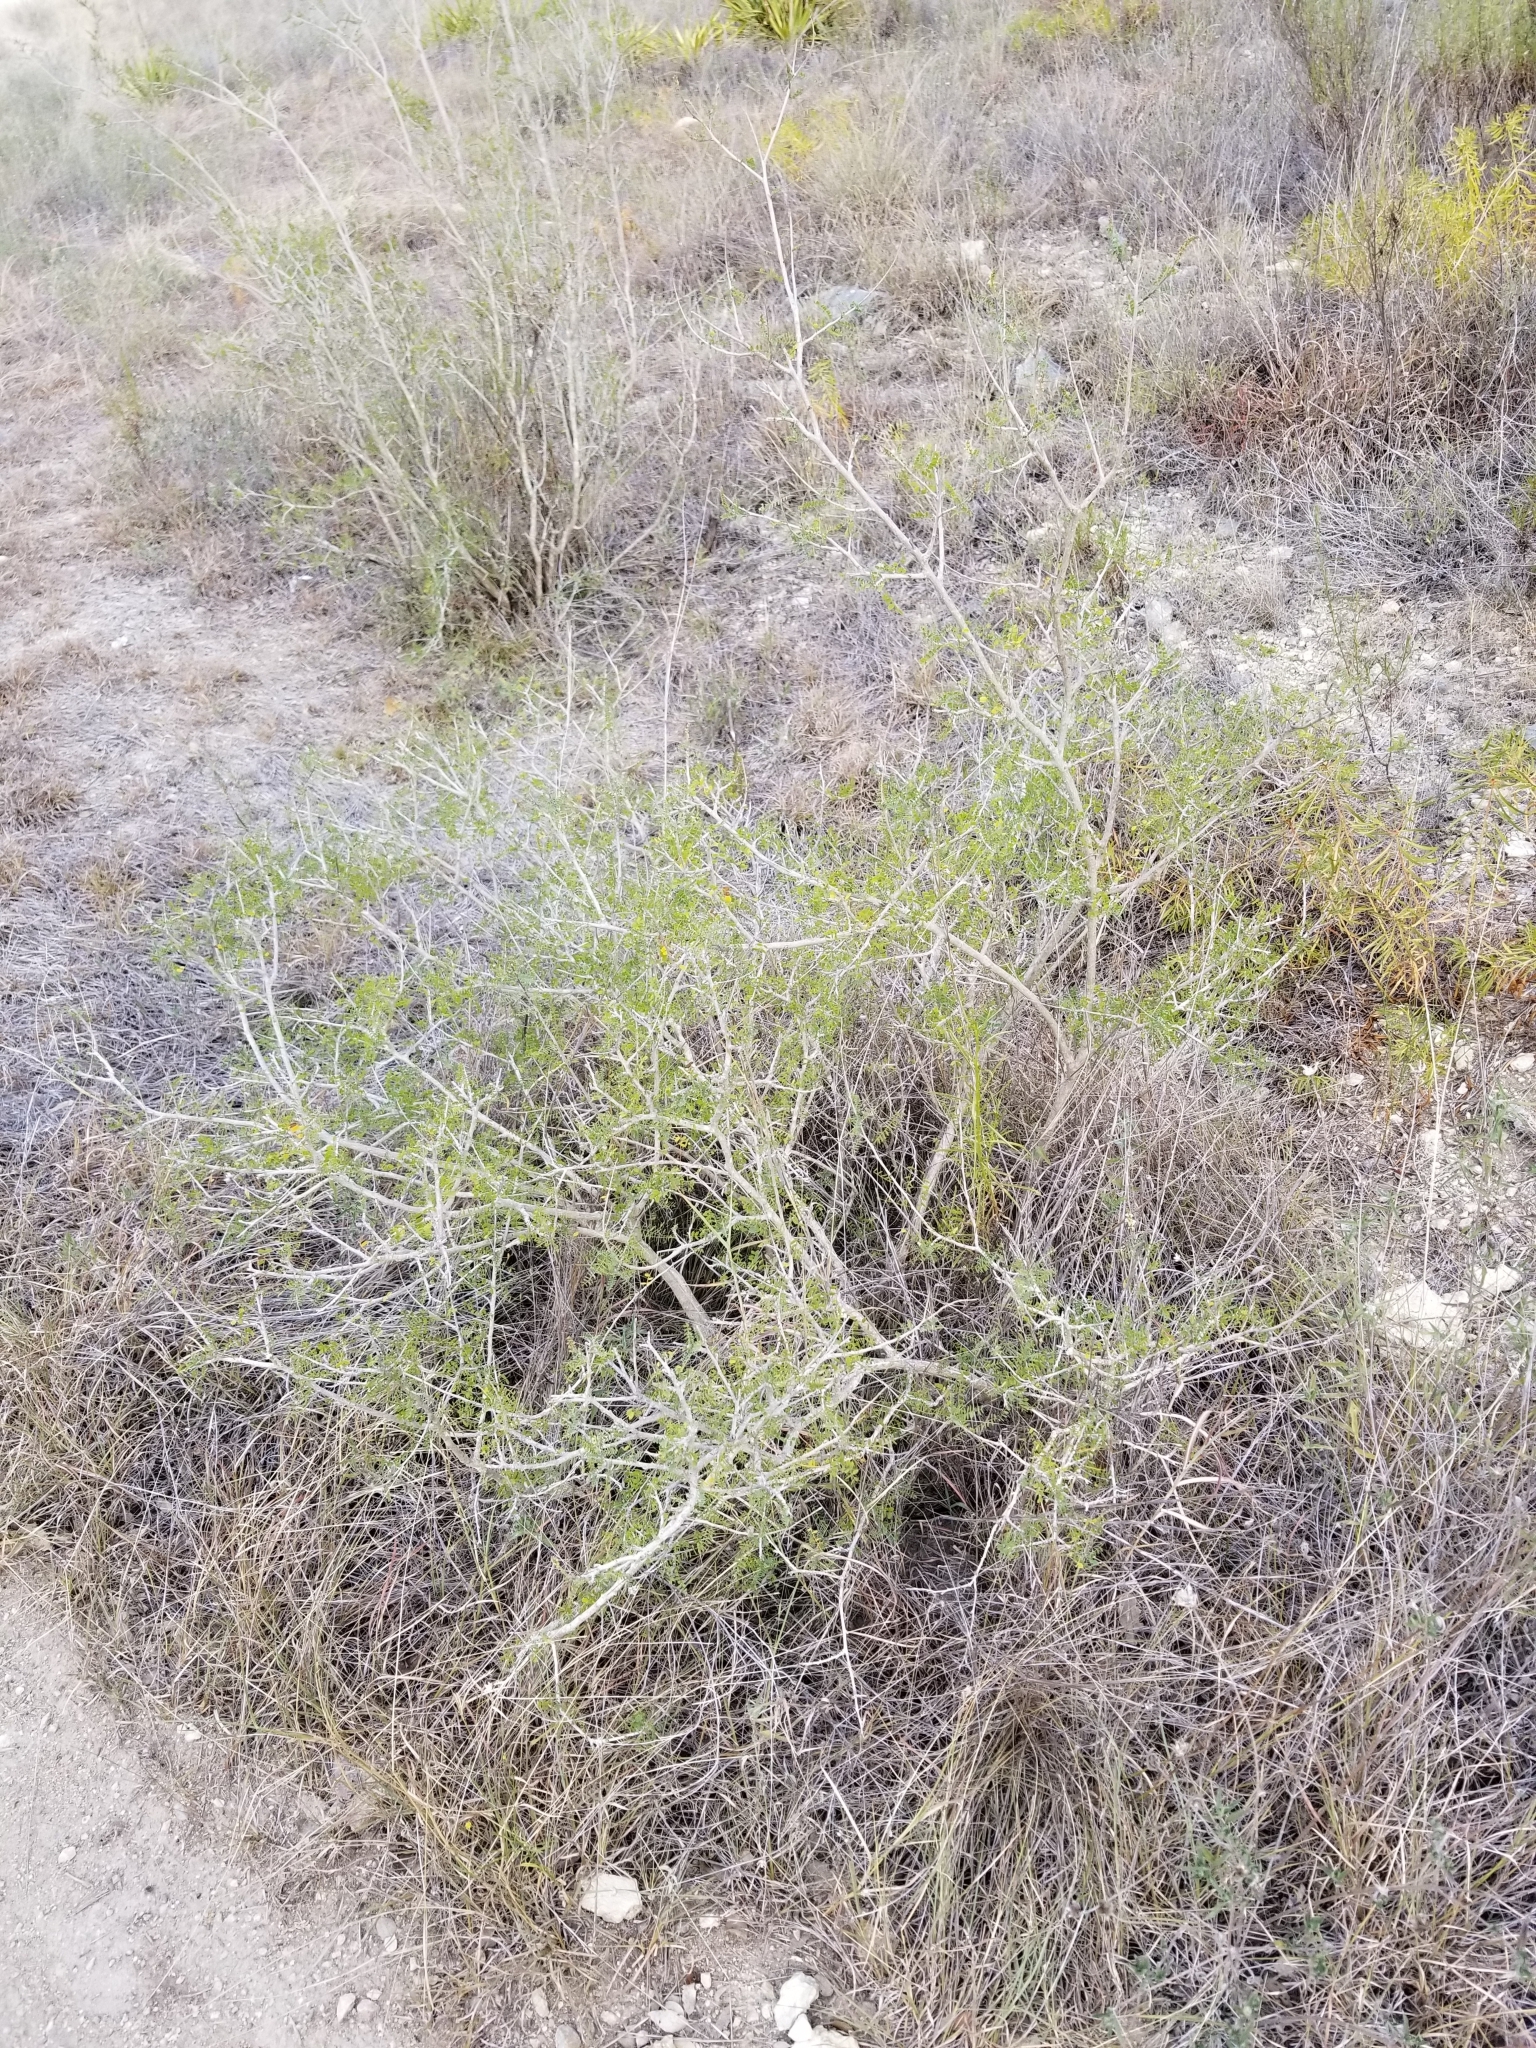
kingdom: Plantae
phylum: Tracheophyta
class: Magnoliopsida
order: Fabales
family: Fabaceae
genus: Eysenhardtia
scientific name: Eysenhardtia texana
